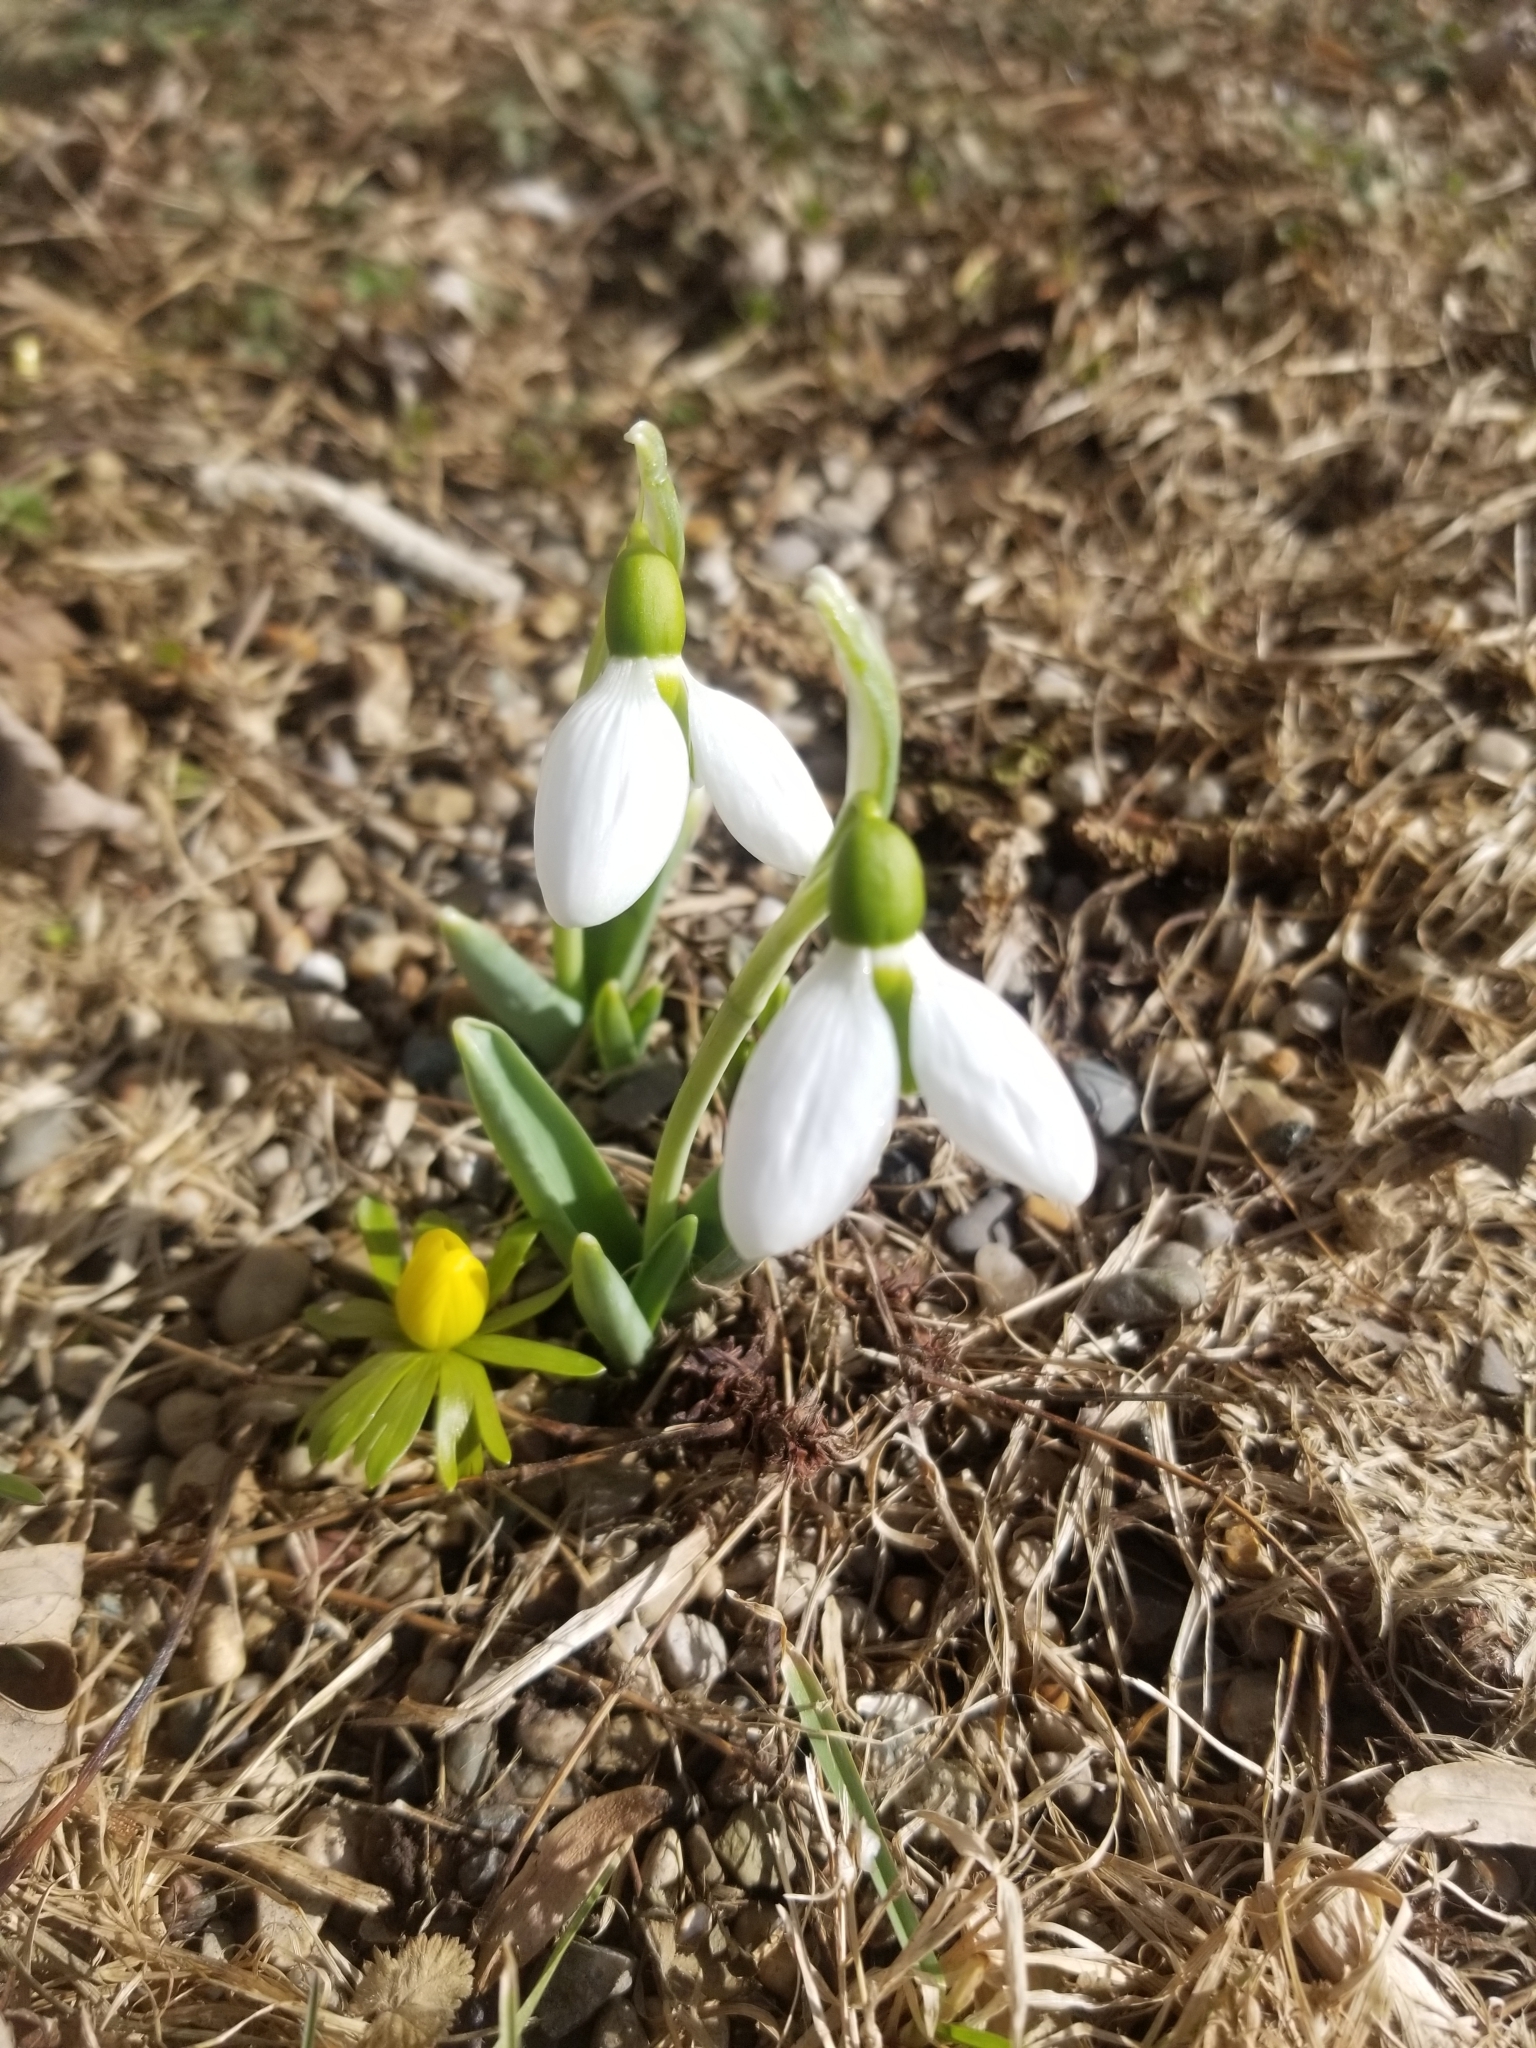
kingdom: Plantae
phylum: Tracheophyta
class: Liliopsida
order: Asparagales
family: Amaryllidaceae
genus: Galanthus
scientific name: Galanthus elwesii
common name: Greater snowdrop
